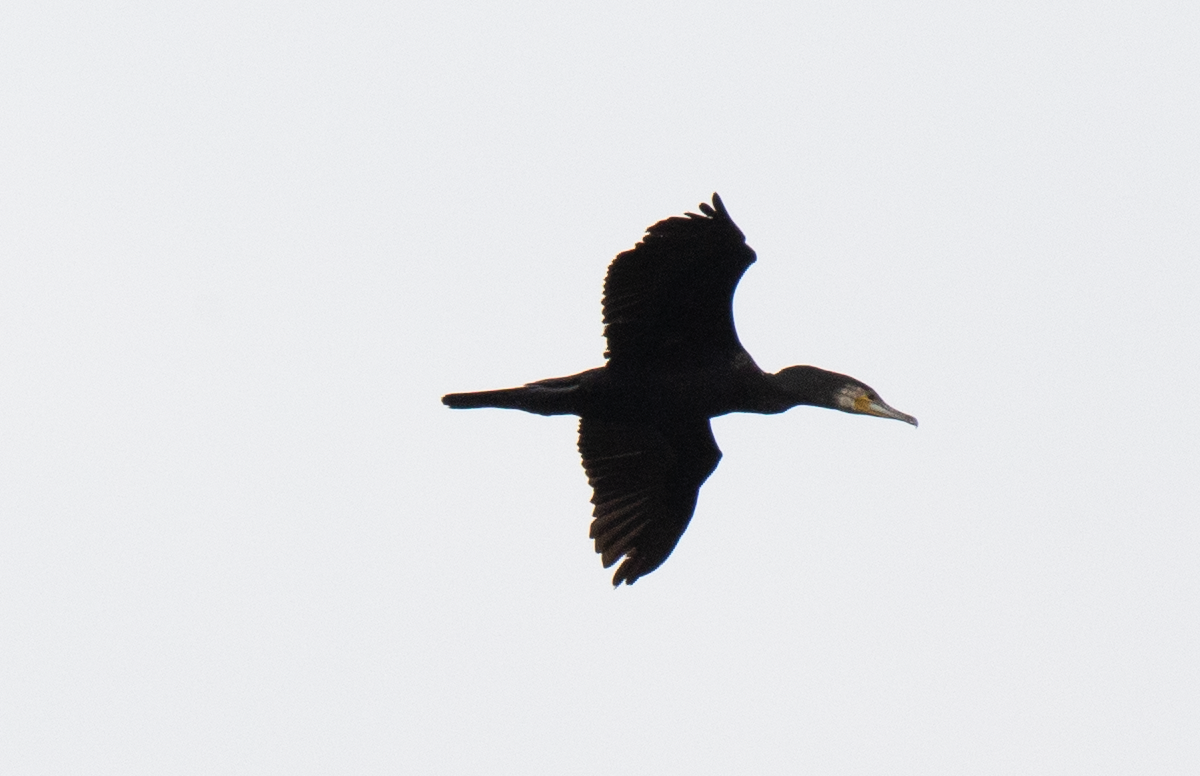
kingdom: Animalia
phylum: Chordata
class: Aves
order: Suliformes
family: Phalacrocoracidae
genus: Phalacrocorax
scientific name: Phalacrocorax carbo
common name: Great cormorant
